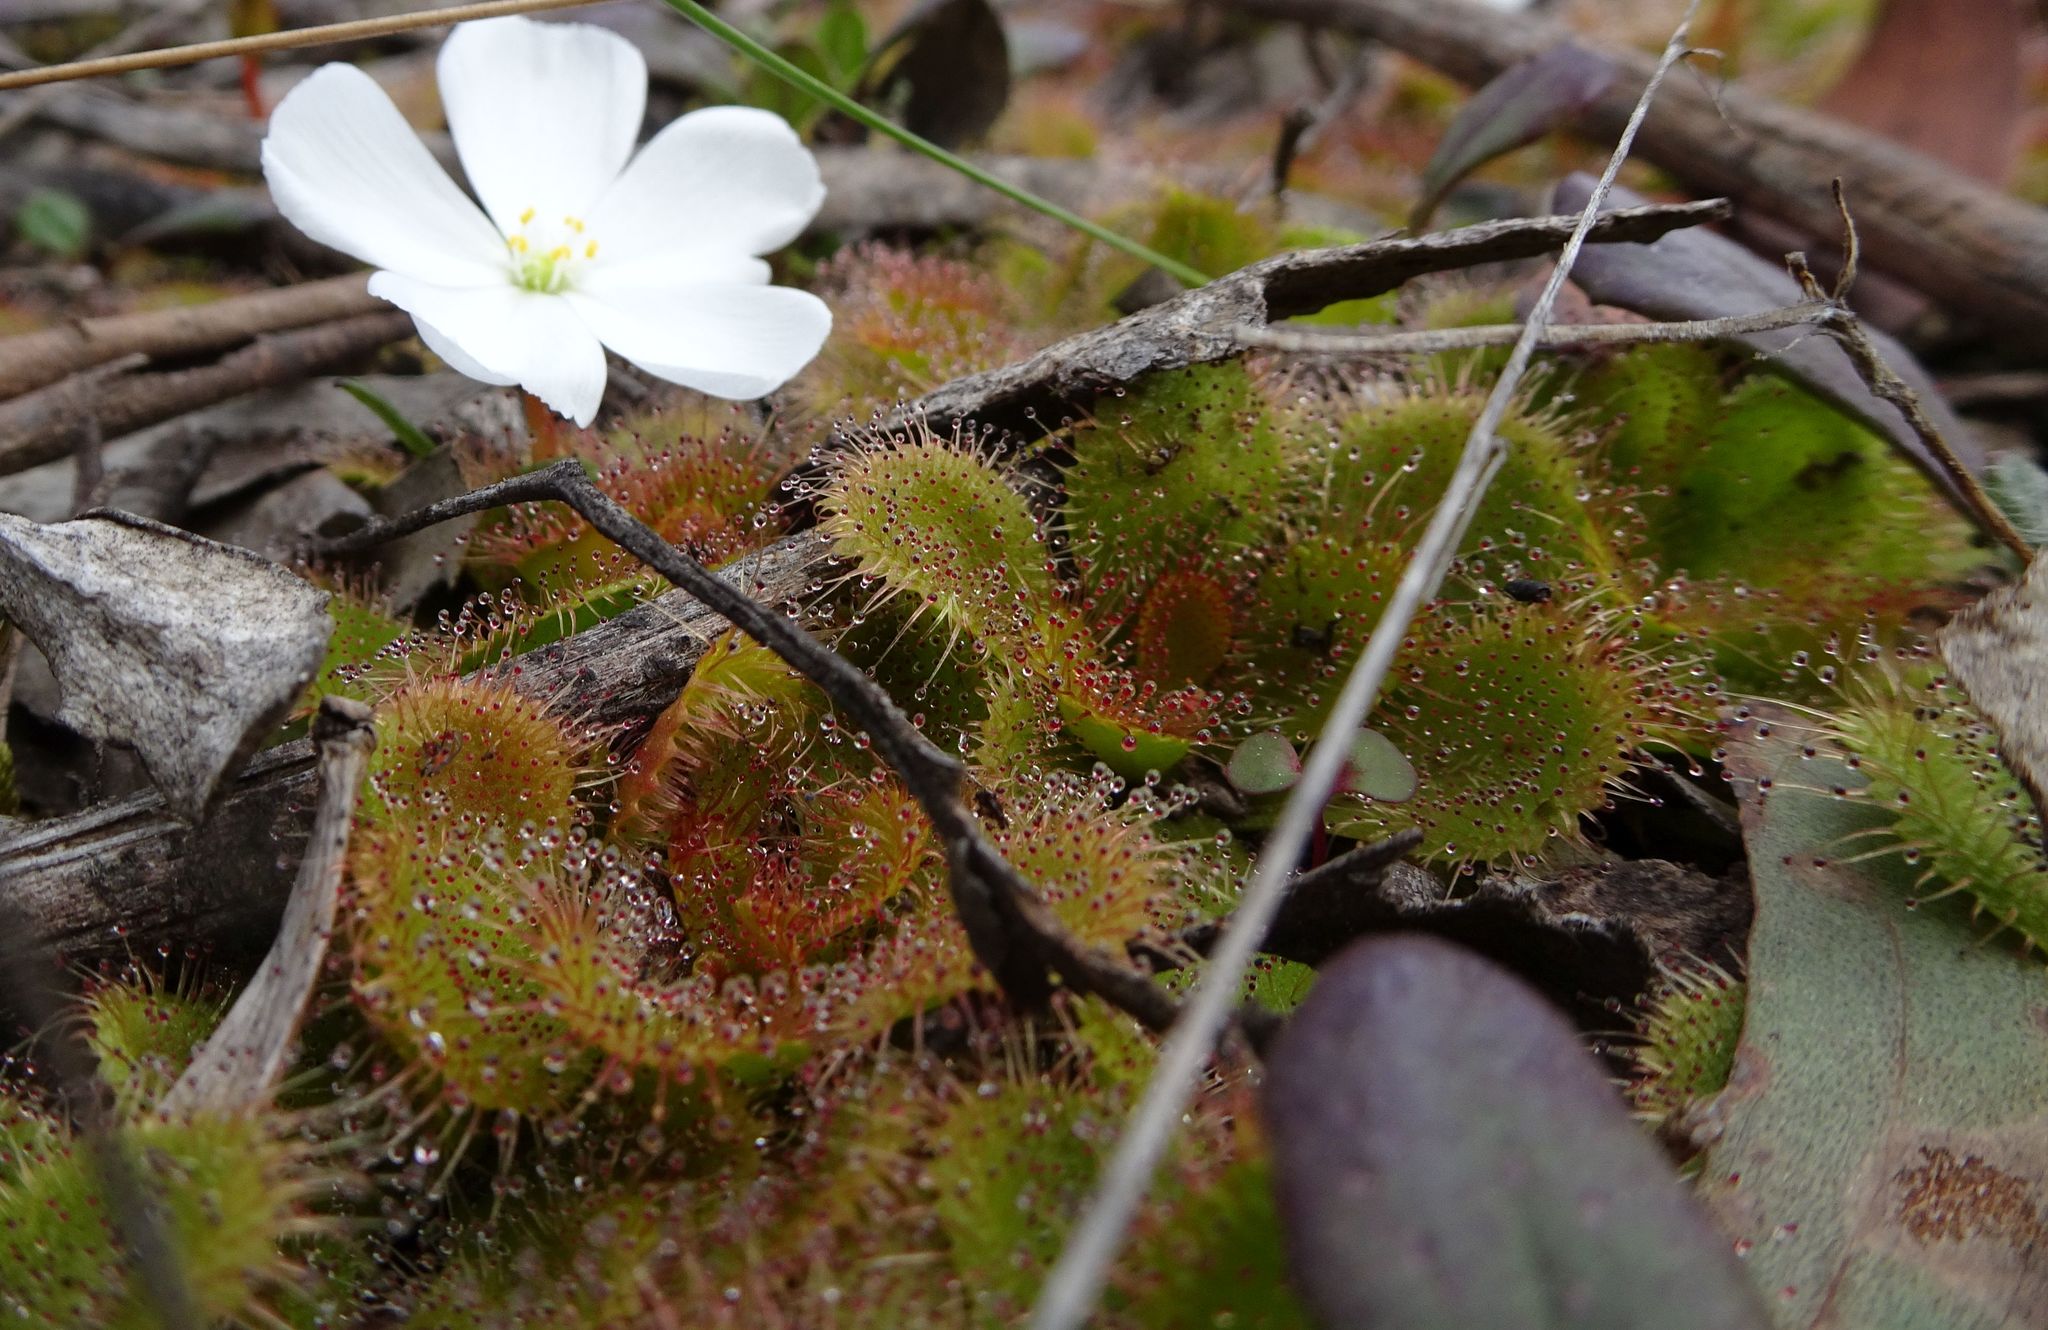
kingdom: Plantae
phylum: Tracheophyta
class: Magnoliopsida
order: Caryophyllales
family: Droseraceae
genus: Drosera
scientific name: Drosera aberrans
